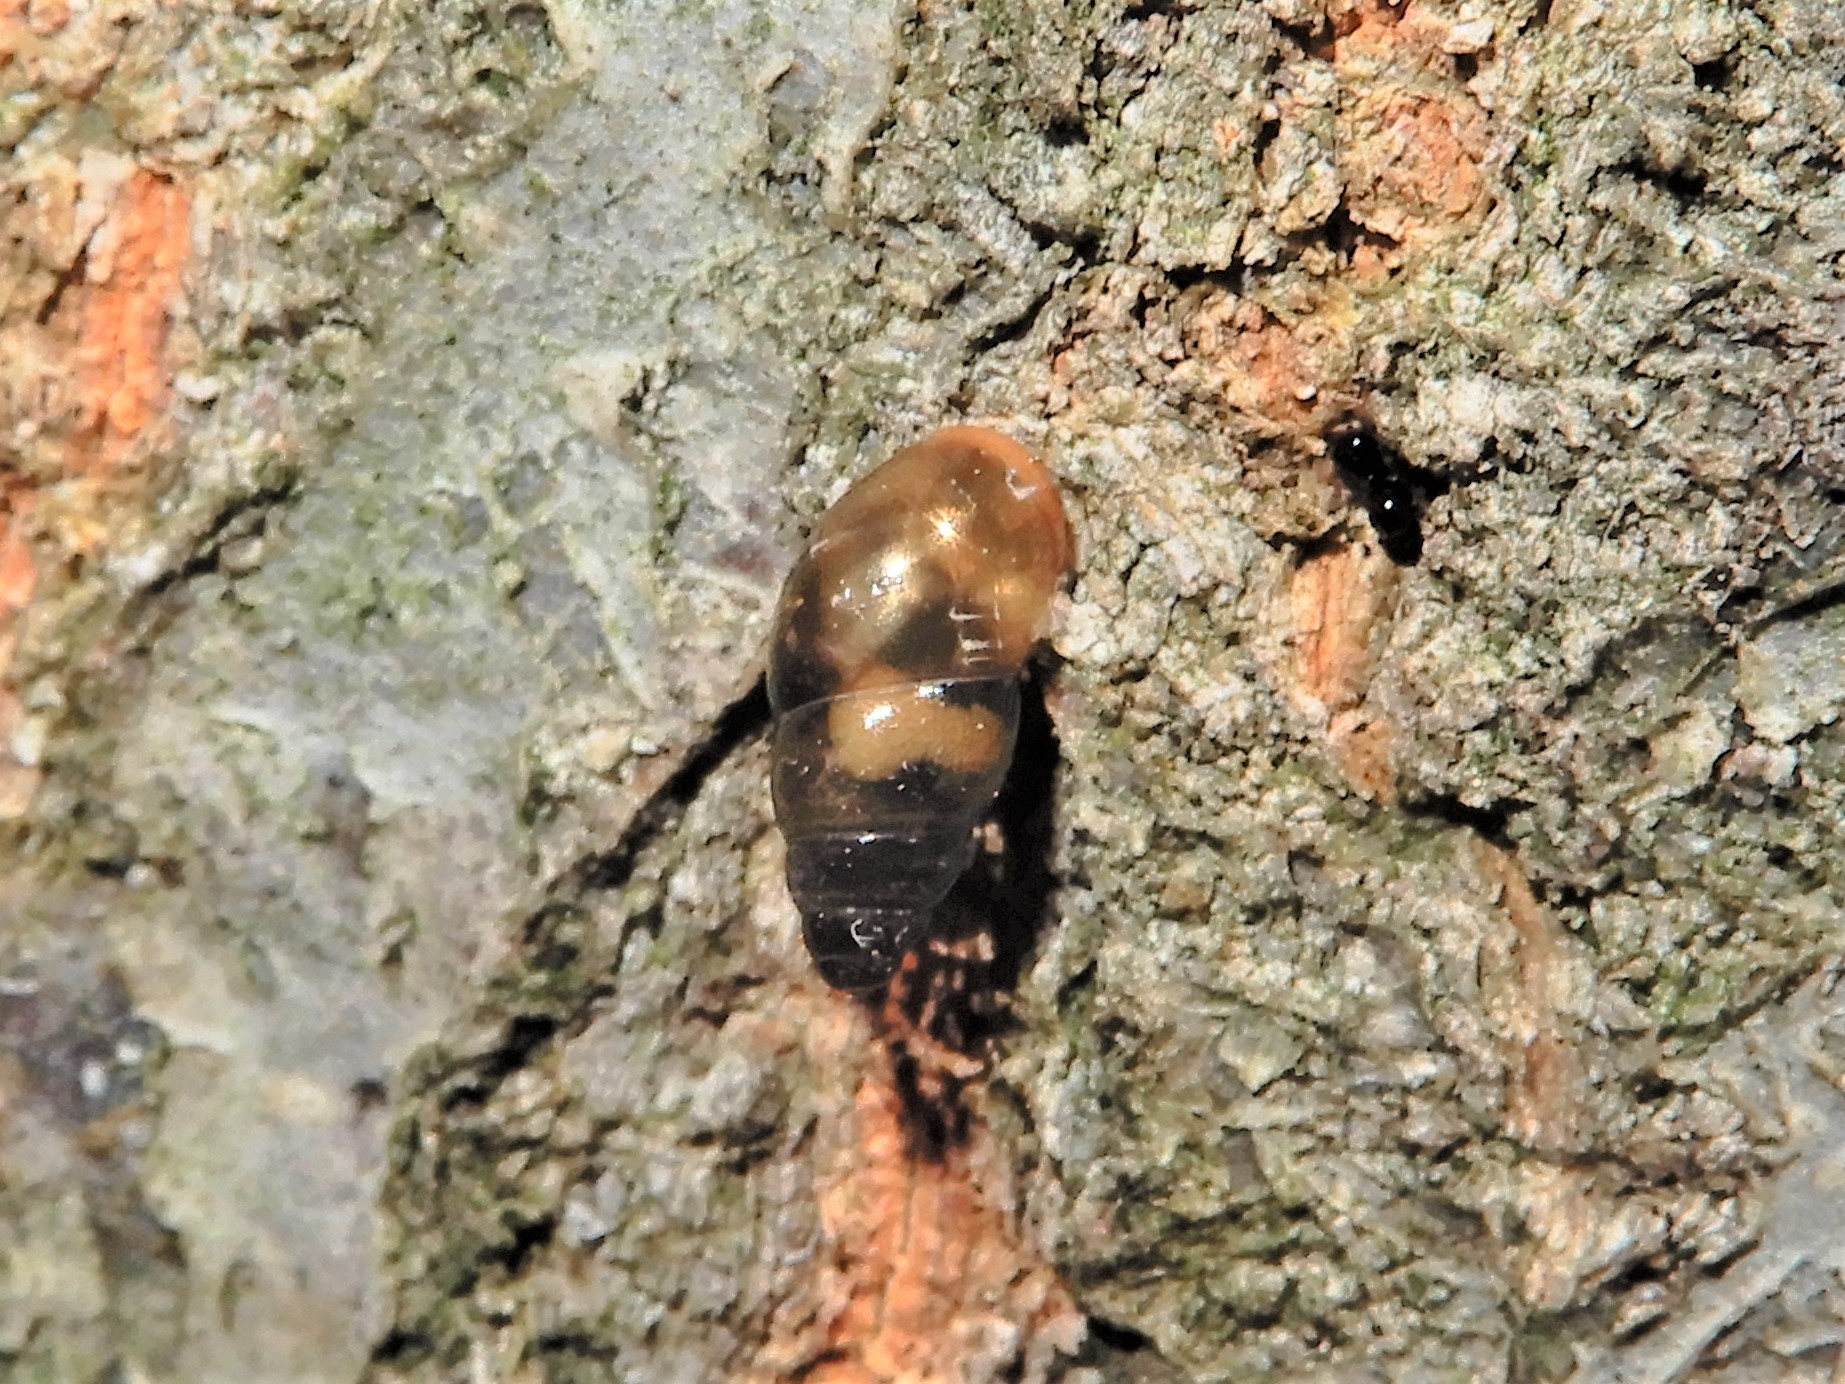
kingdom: Animalia
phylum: Mollusca
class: Gastropoda
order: Stylommatophora
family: Cochlicopidae
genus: Cochlicopa
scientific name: Cochlicopa lubrica
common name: Glossy pillar snail
